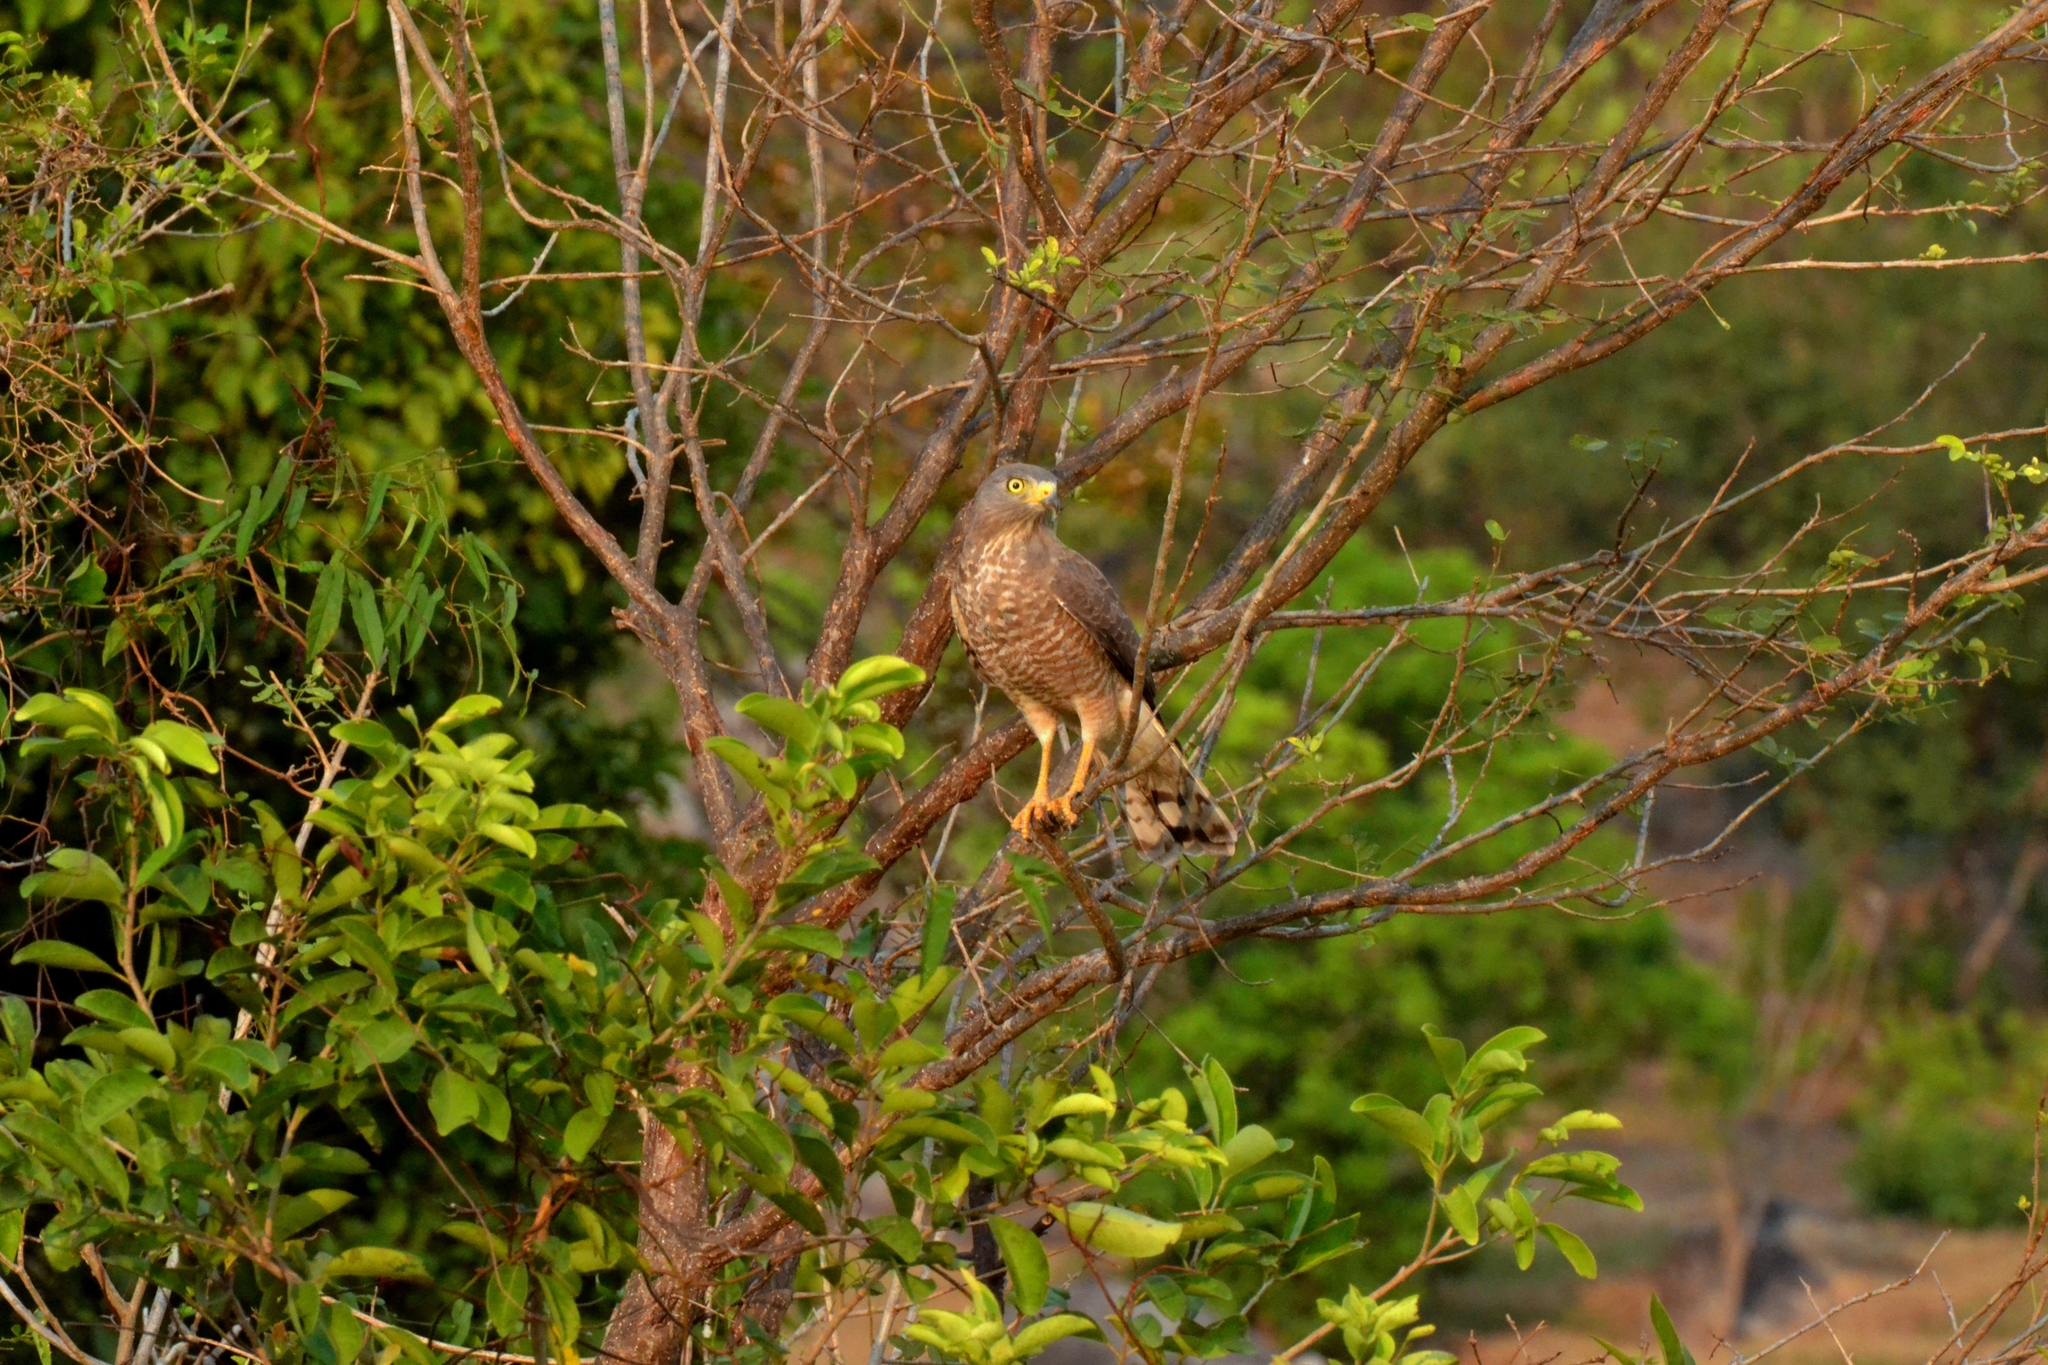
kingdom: Animalia
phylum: Chordata
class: Aves
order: Accipitriformes
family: Accipitridae
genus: Rupornis
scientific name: Rupornis magnirostris
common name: Roadside hawk
